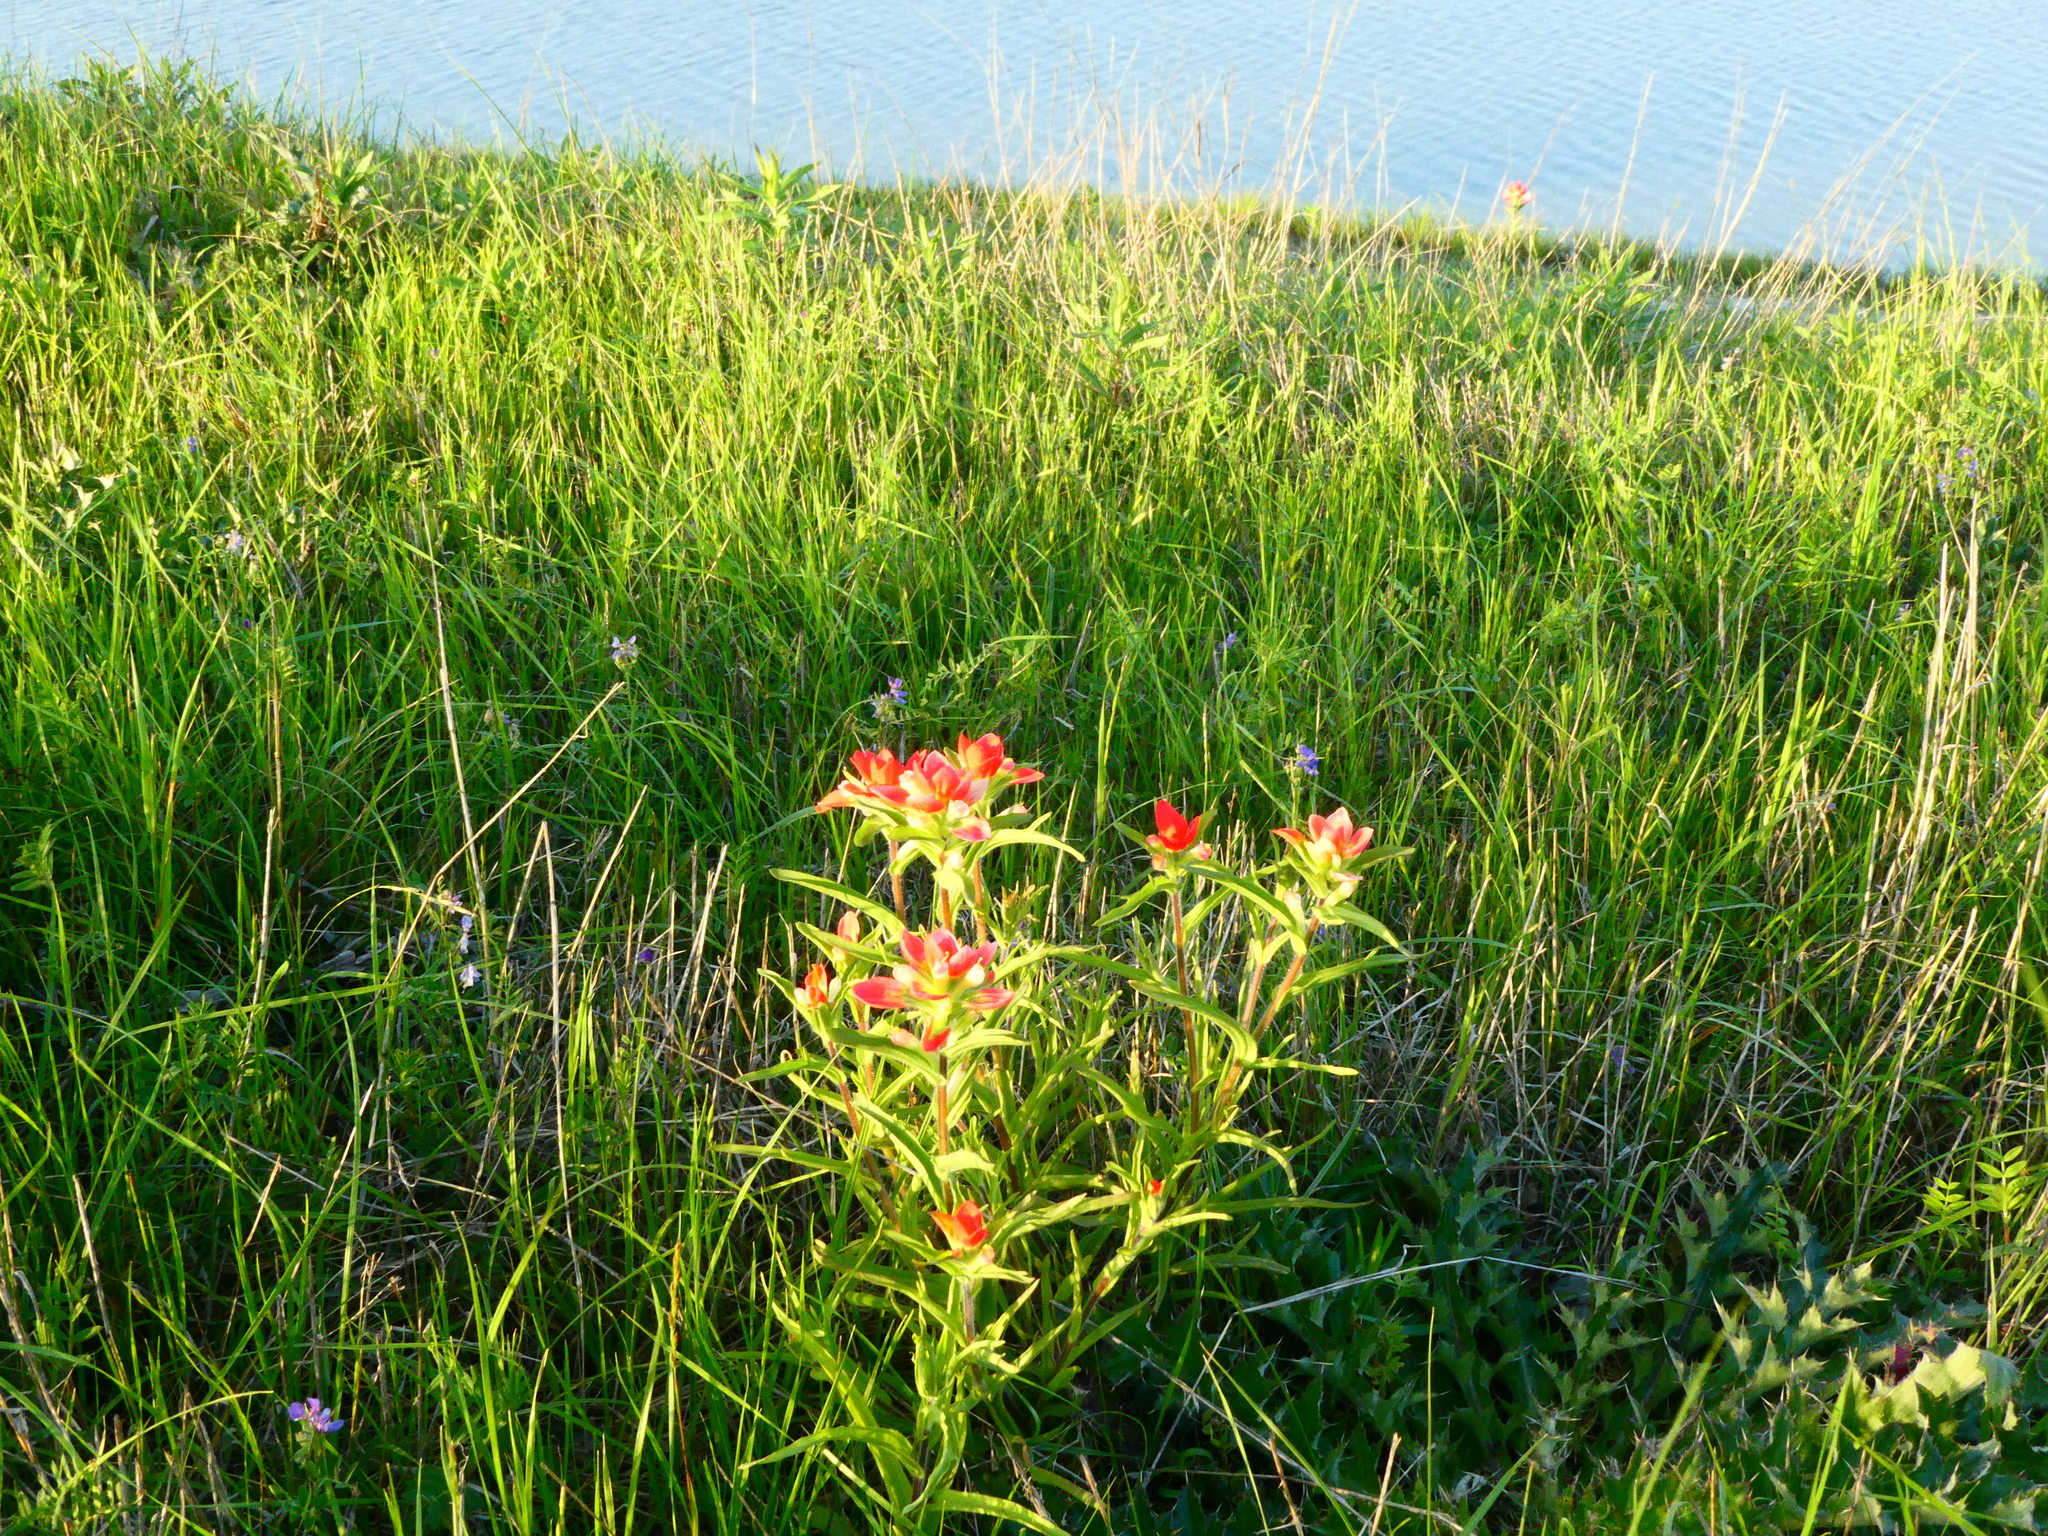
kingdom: Plantae
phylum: Tracheophyta
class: Magnoliopsida
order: Lamiales
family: Orobanchaceae
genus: Castilleja
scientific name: Castilleja indivisa
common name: Texas paintbrush
